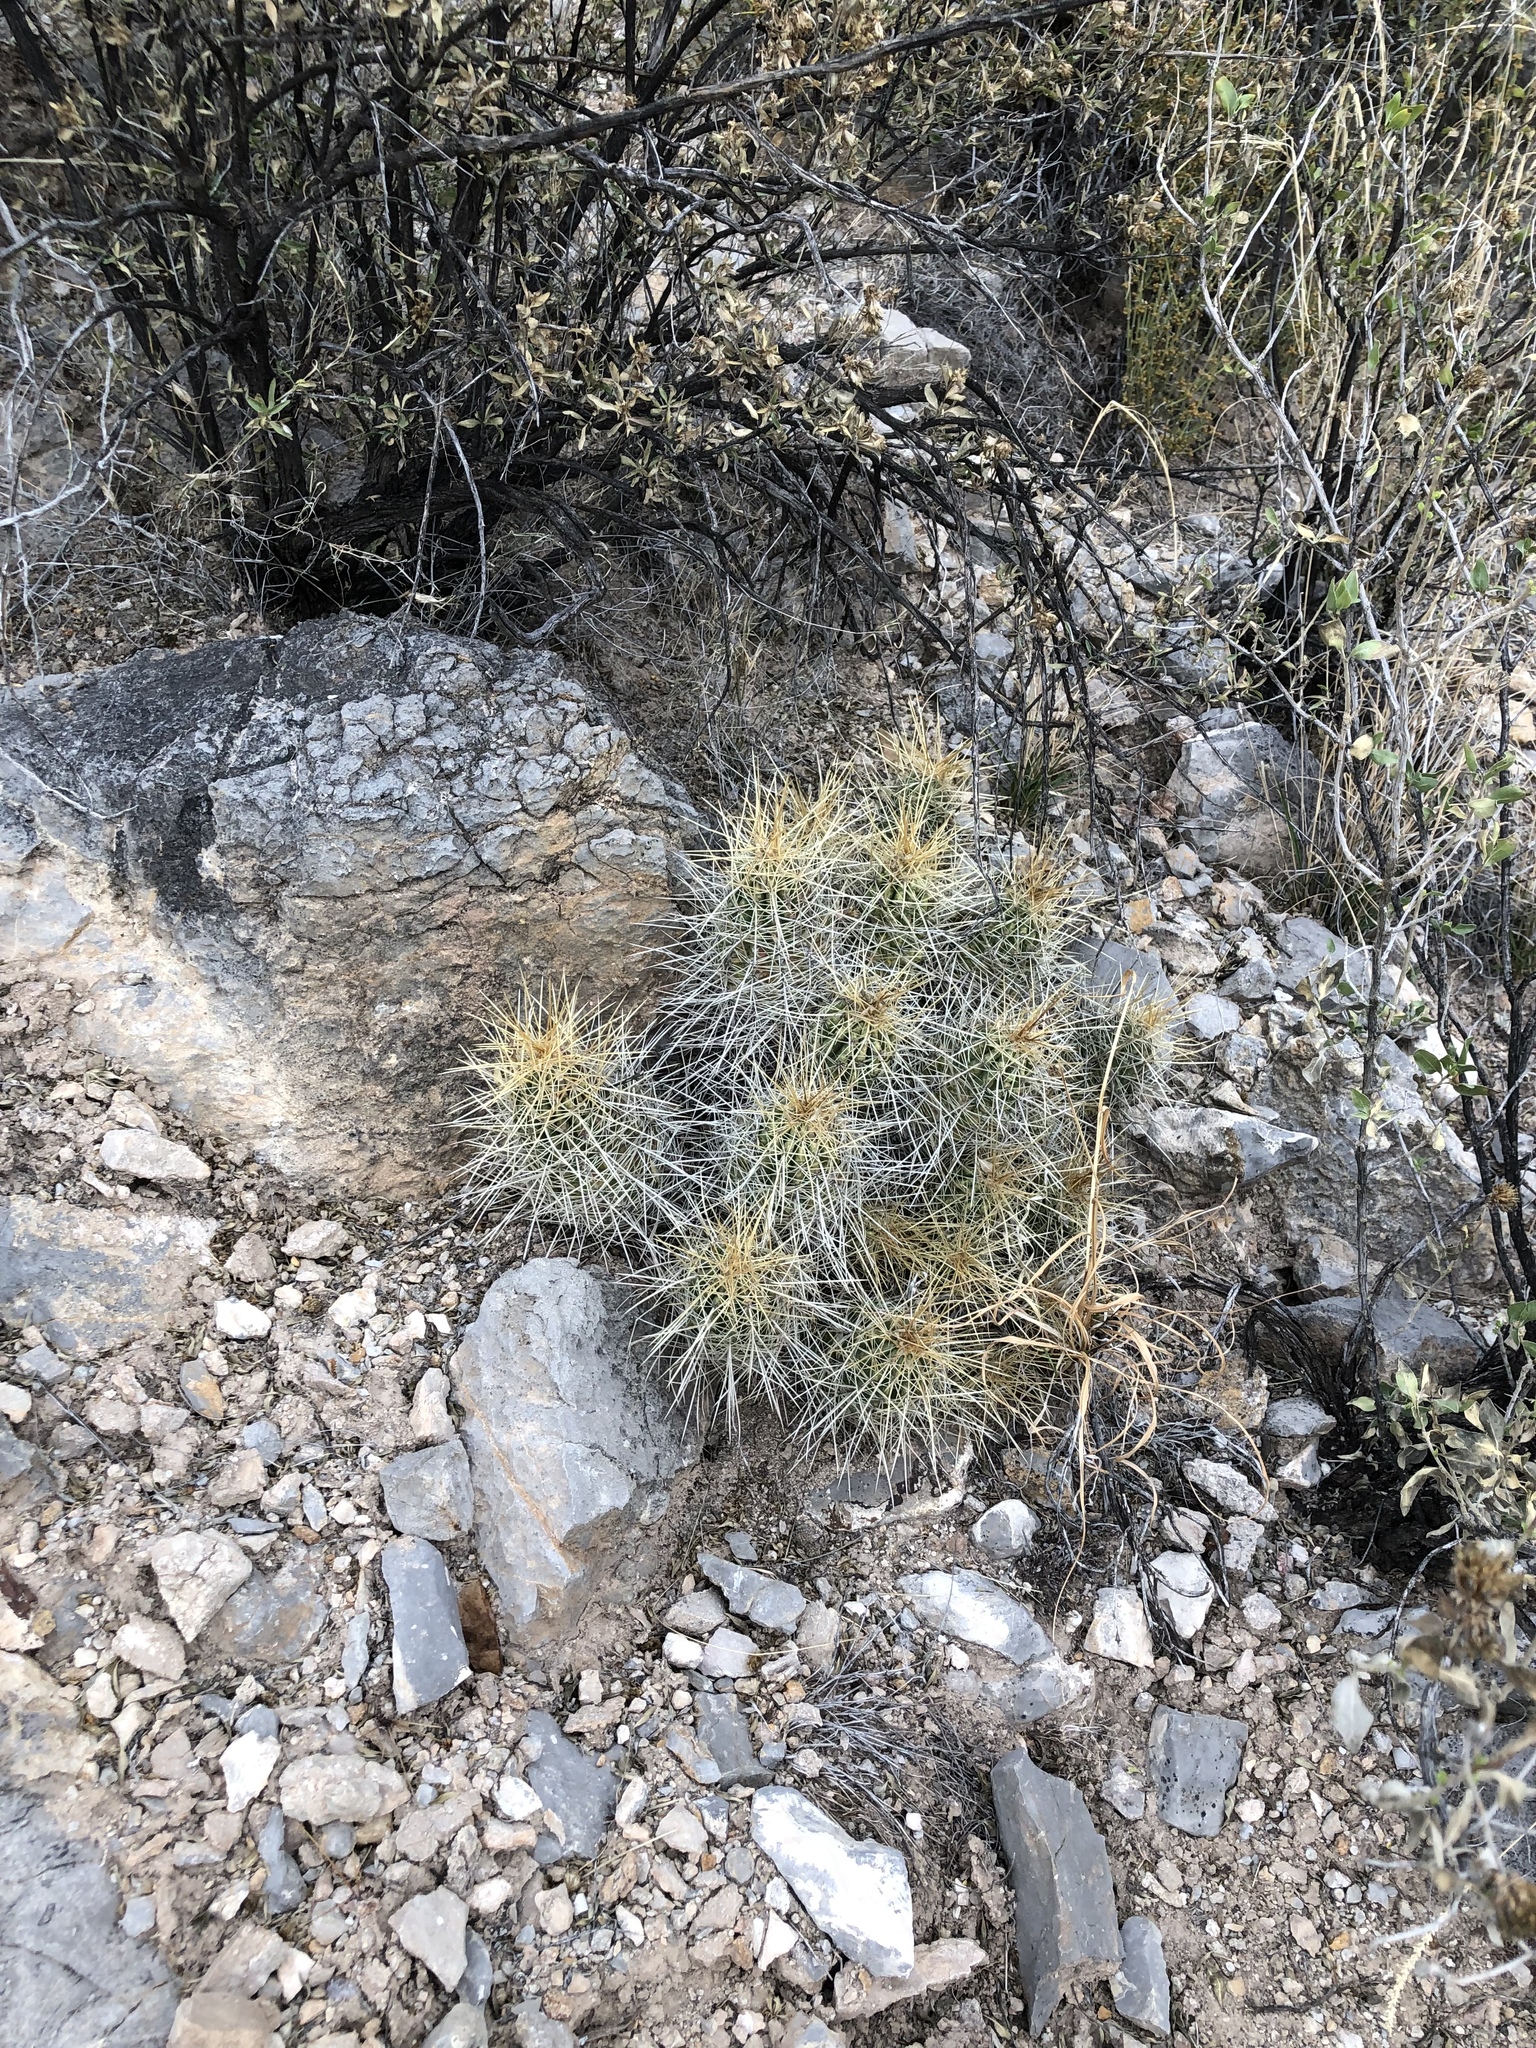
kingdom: Plantae
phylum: Tracheophyta
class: Magnoliopsida
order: Caryophyllales
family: Cactaceae
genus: Echinocereus
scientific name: Echinocereus stramineus
